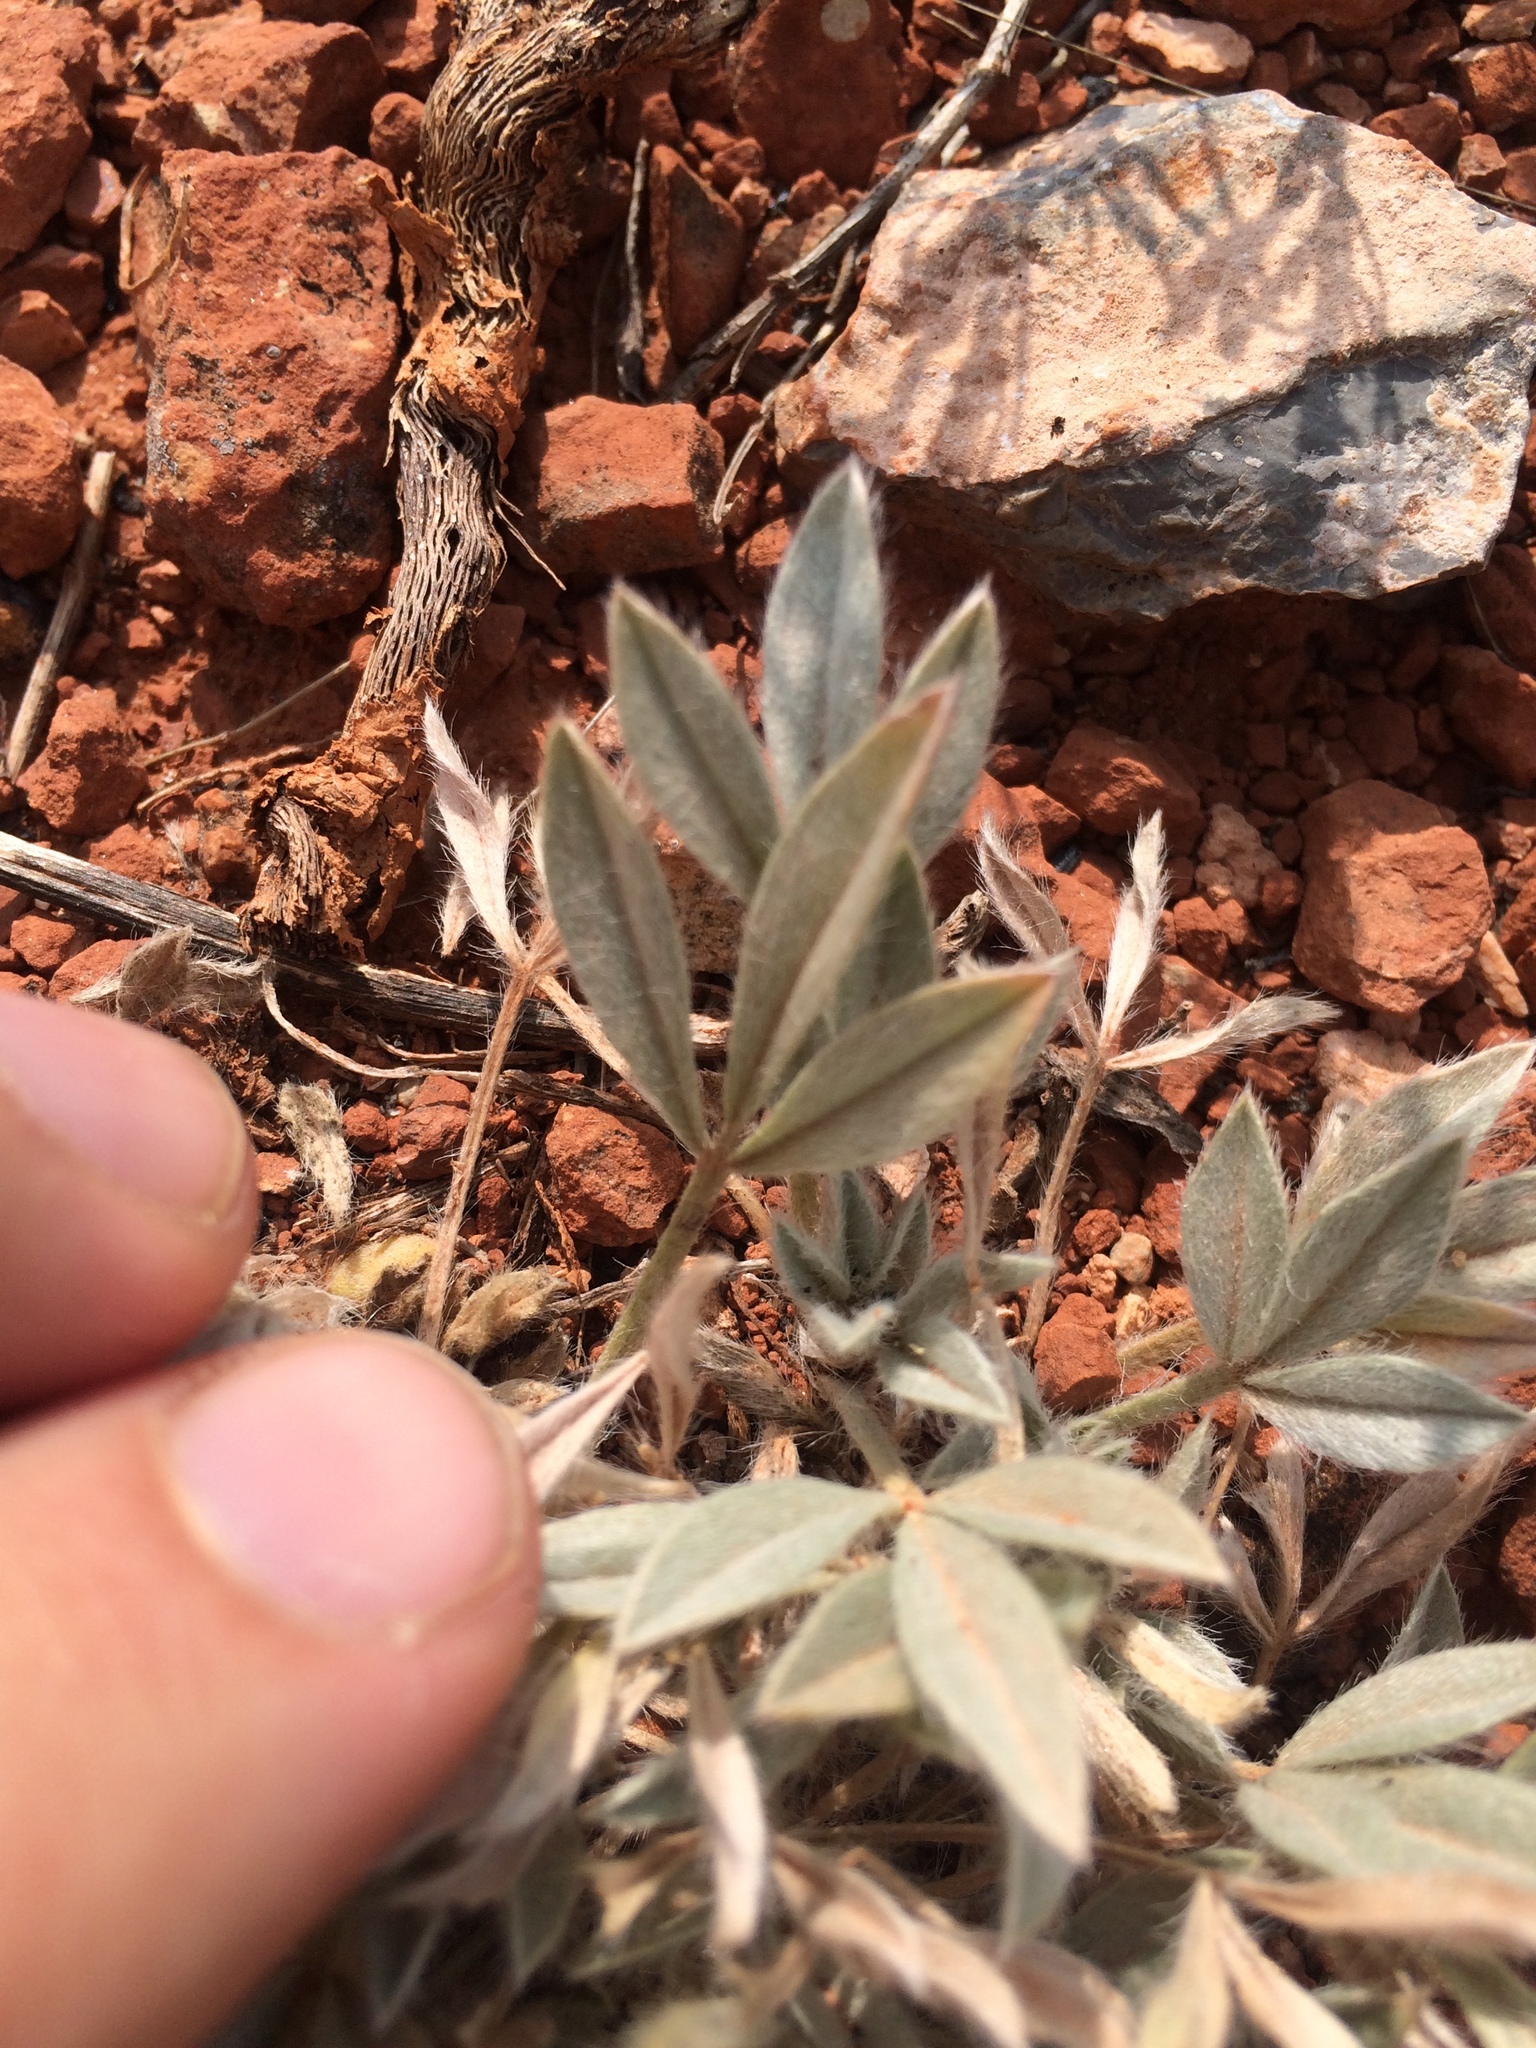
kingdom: Plantae
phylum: Tracheophyta
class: Magnoliopsida
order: Fabales
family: Fabaceae
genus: Astragalus
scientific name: Astragalus tridactylicus
